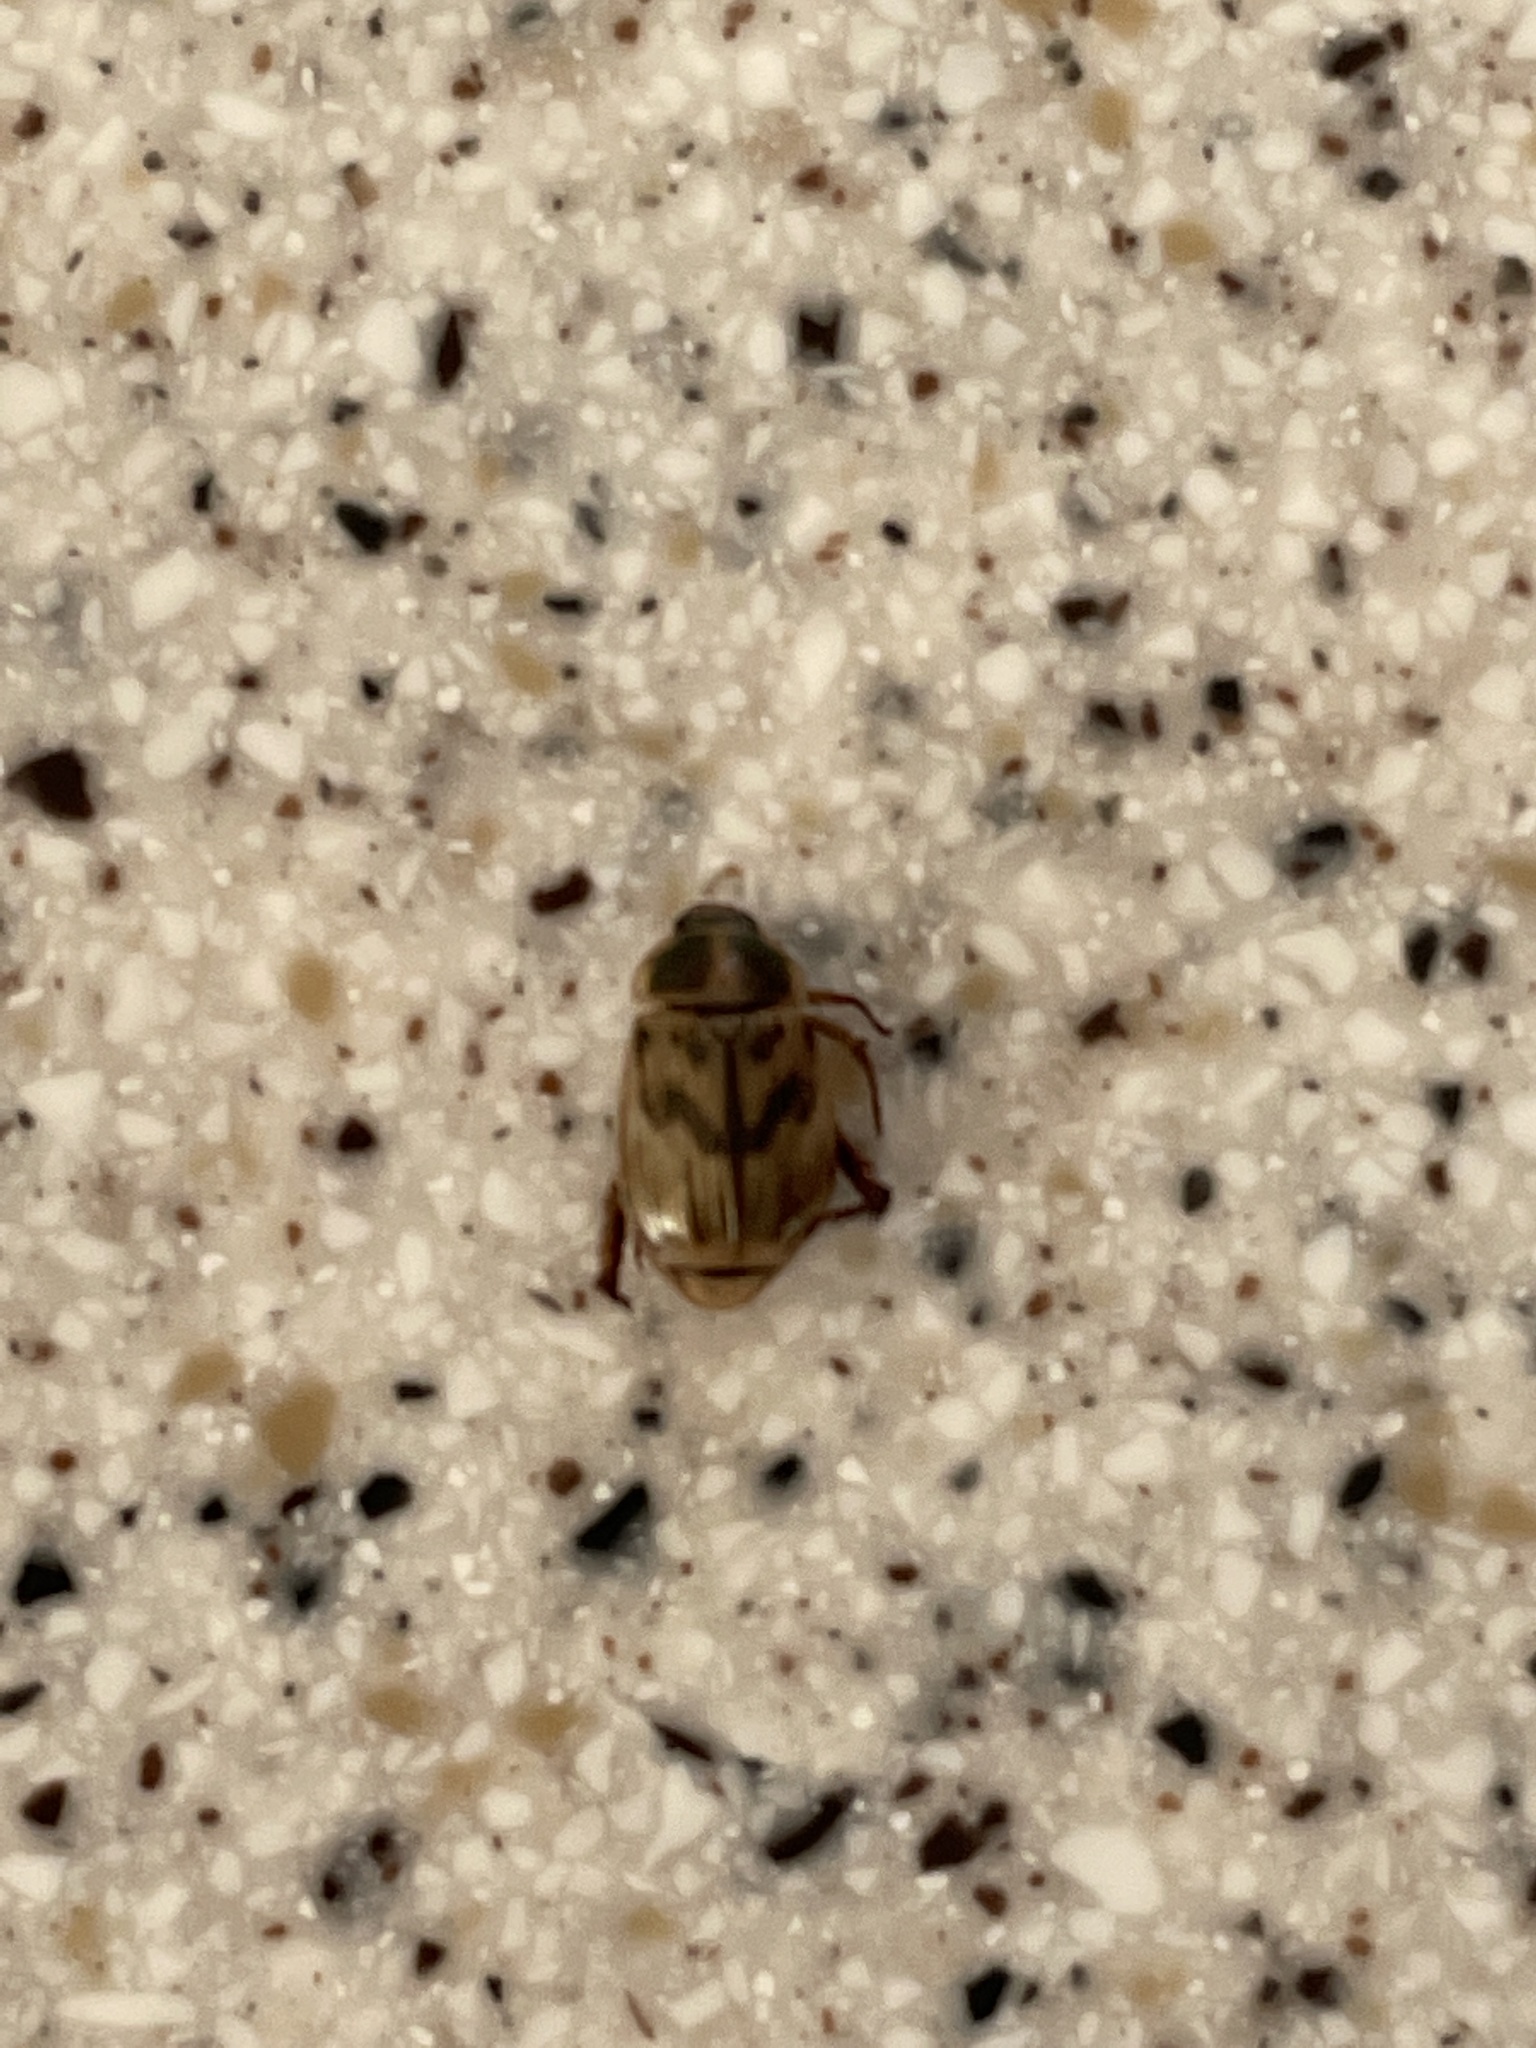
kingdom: Animalia
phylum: Arthropoda
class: Insecta
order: Coleoptera
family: Scarabaeidae
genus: Exomala
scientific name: Exomala orientalis
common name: Oriental beetle
